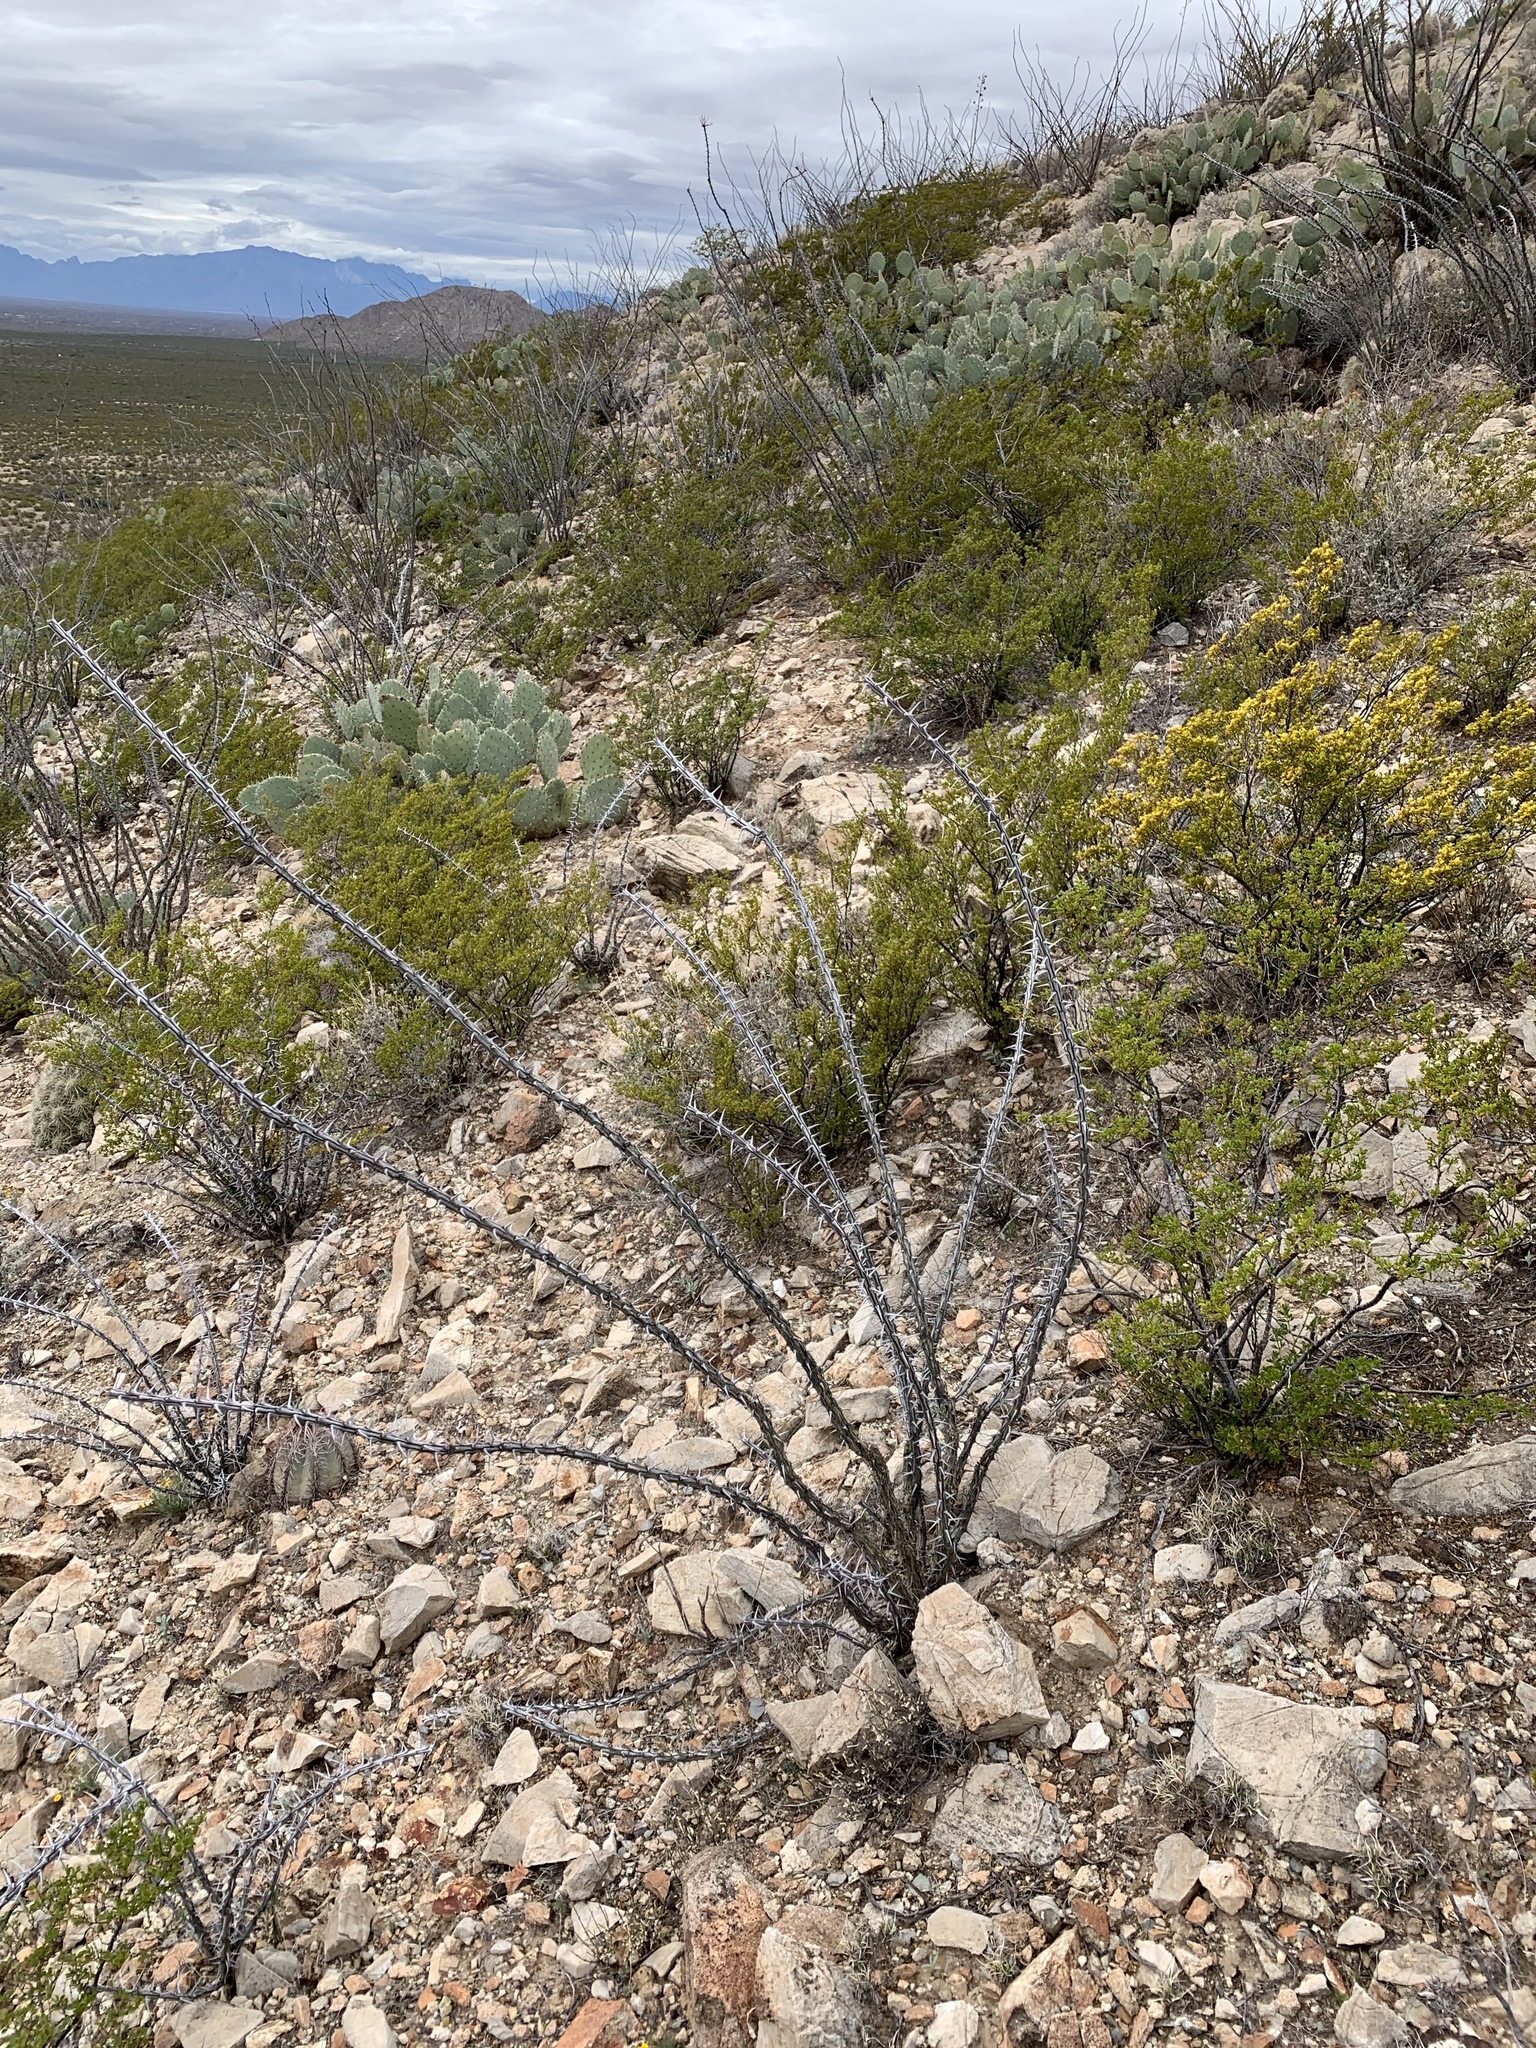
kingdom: Plantae
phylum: Tracheophyta
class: Magnoliopsida
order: Ericales
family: Fouquieriaceae
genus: Fouquieria
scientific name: Fouquieria splendens
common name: Vine-cactus
